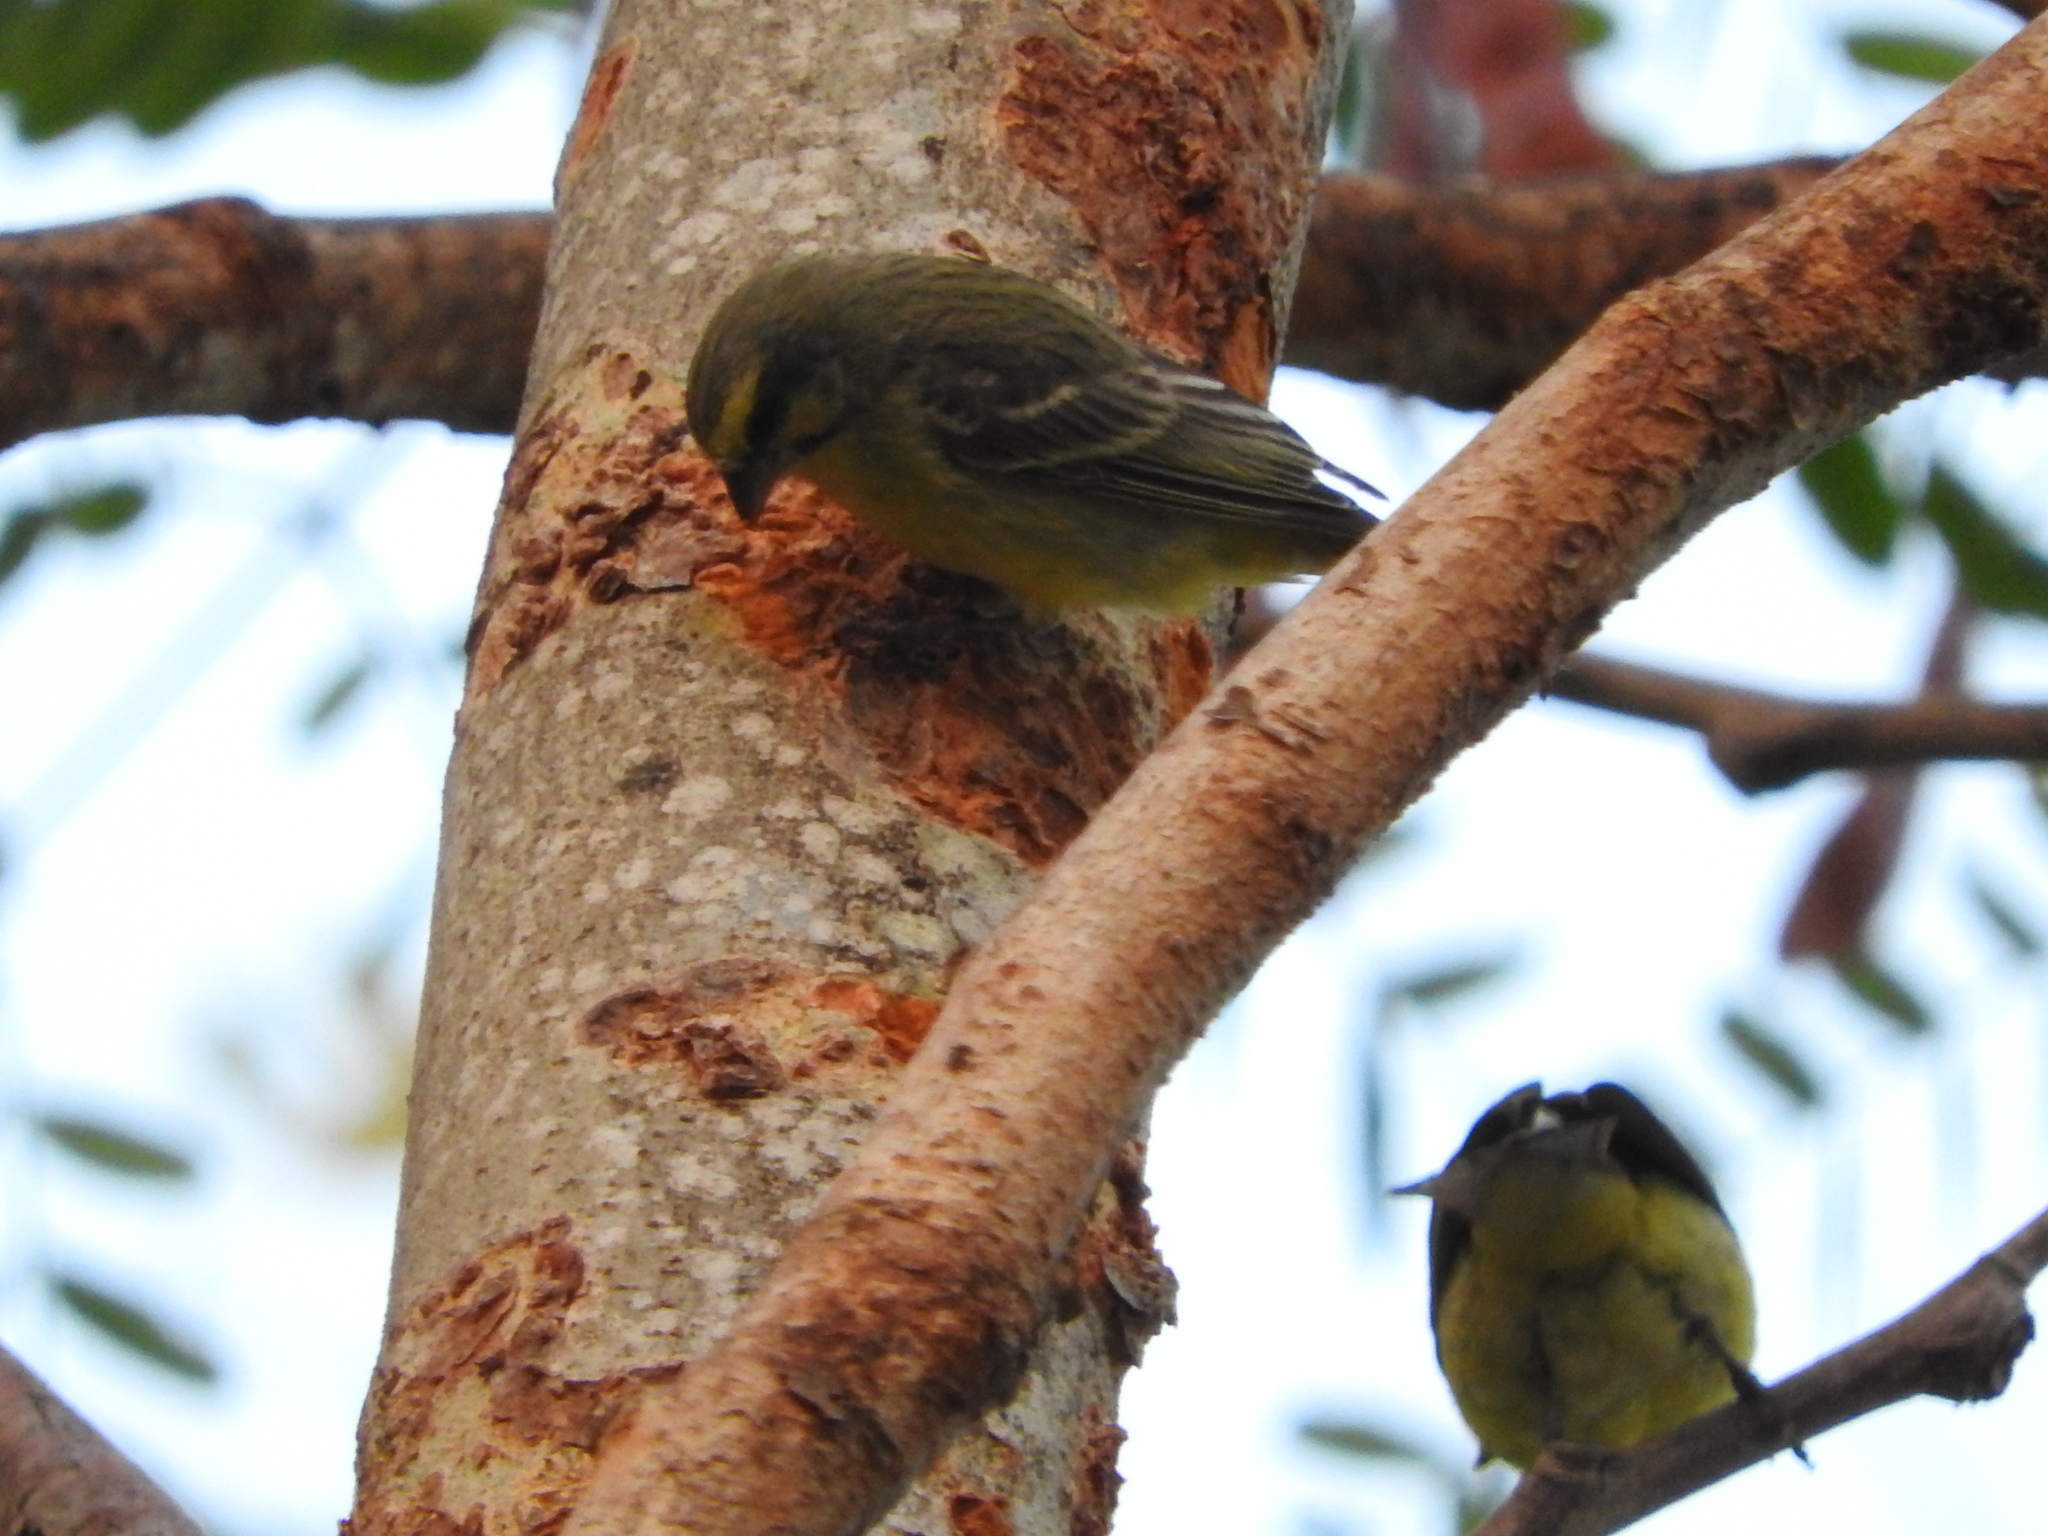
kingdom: Animalia
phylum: Chordata
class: Aves
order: Passeriformes
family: Fringillidae
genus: Crithagra
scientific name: Crithagra mozambica
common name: Yellow-fronted canary
